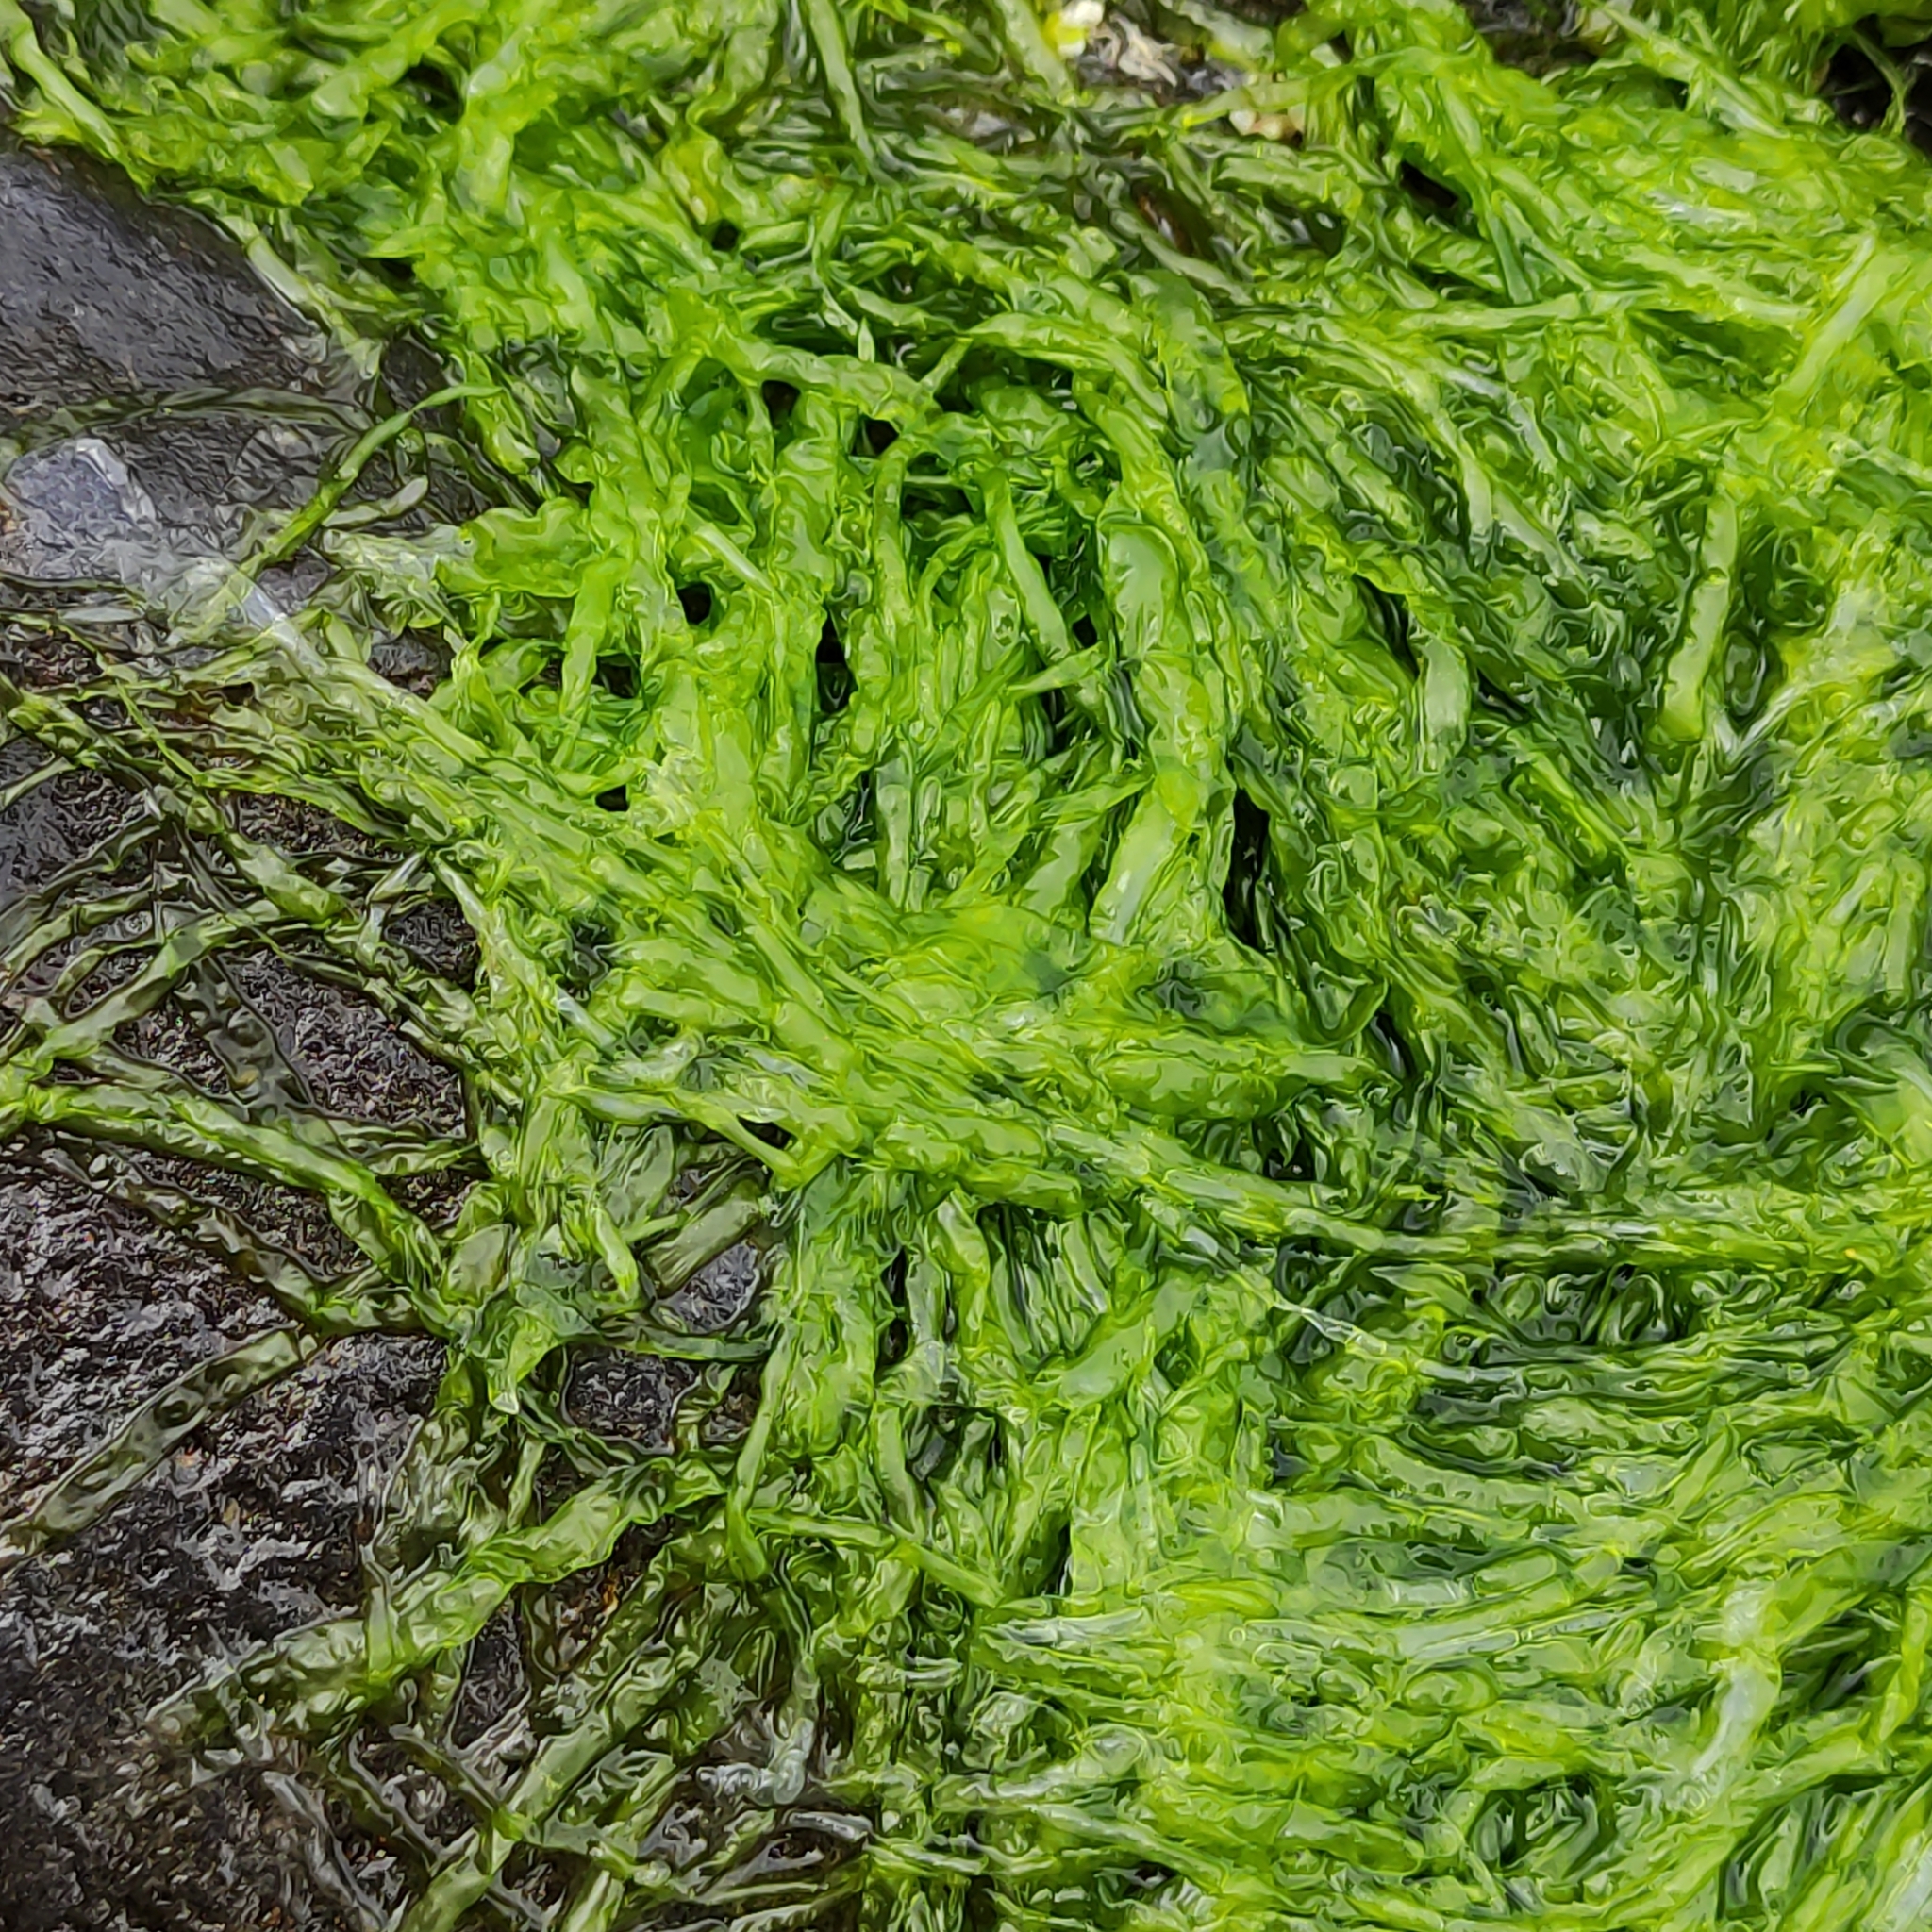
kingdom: Plantae
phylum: Chlorophyta
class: Ulvophyceae
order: Ulvales
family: Ulvaceae
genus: Ulva
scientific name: Ulva intestinalis
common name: Gut weed
